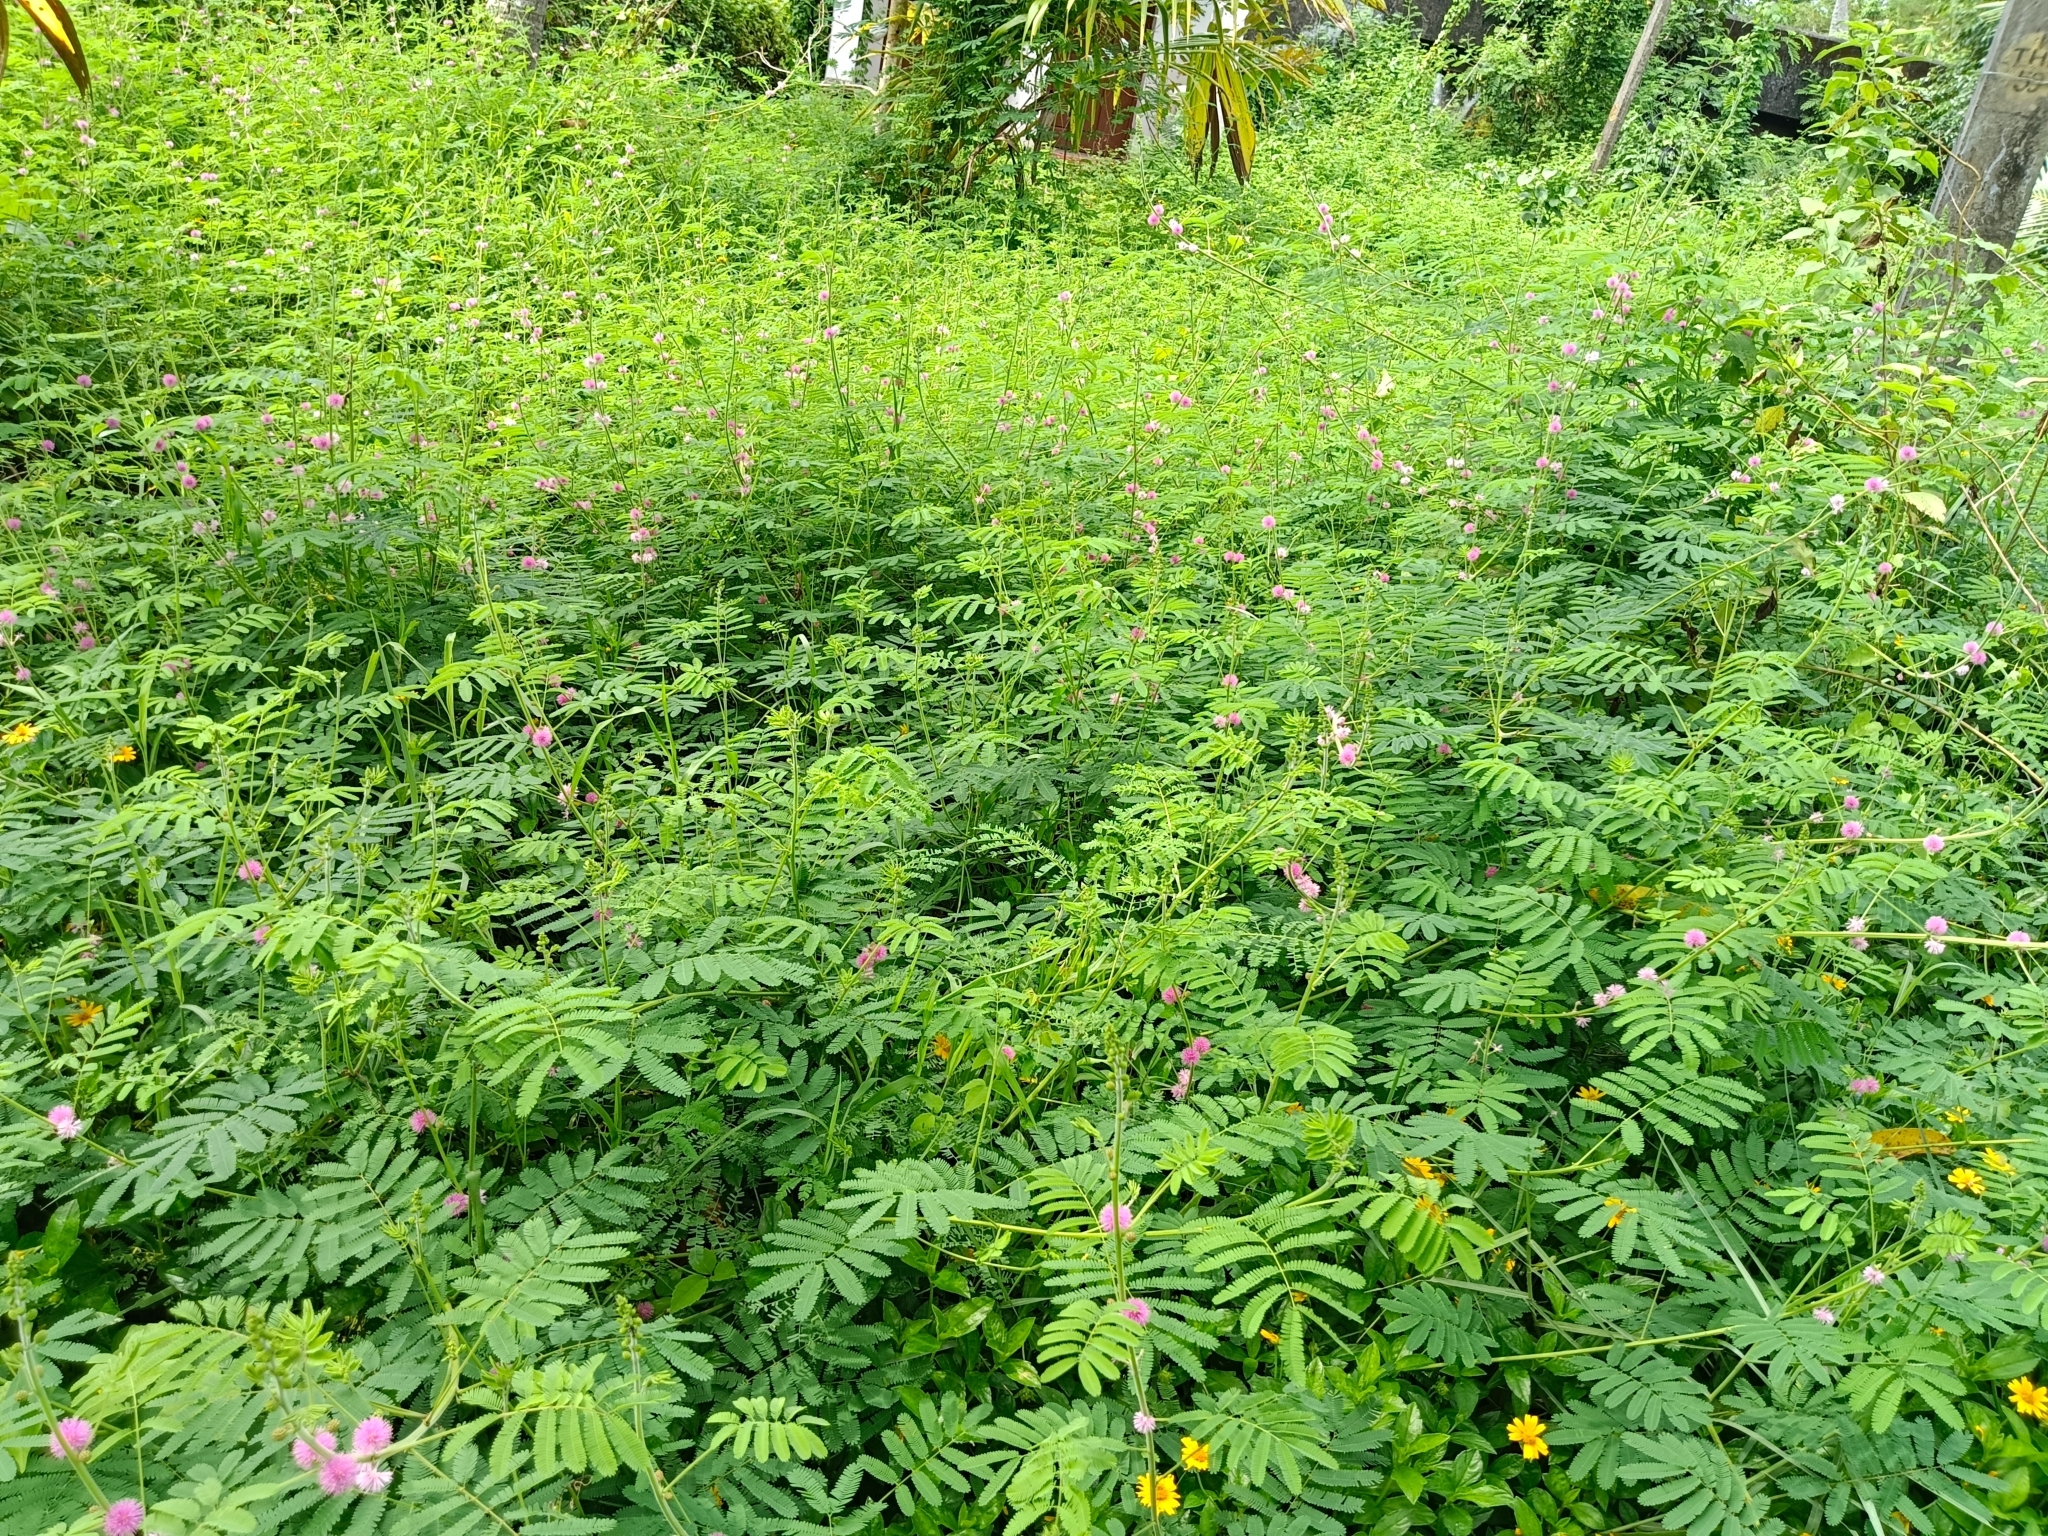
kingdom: Plantae
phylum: Tracheophyta
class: Magnoliopsida
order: Fabales
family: Fabaceae
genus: Mimosa
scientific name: Mimosa diplotricha
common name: Giant sensitive-plant
